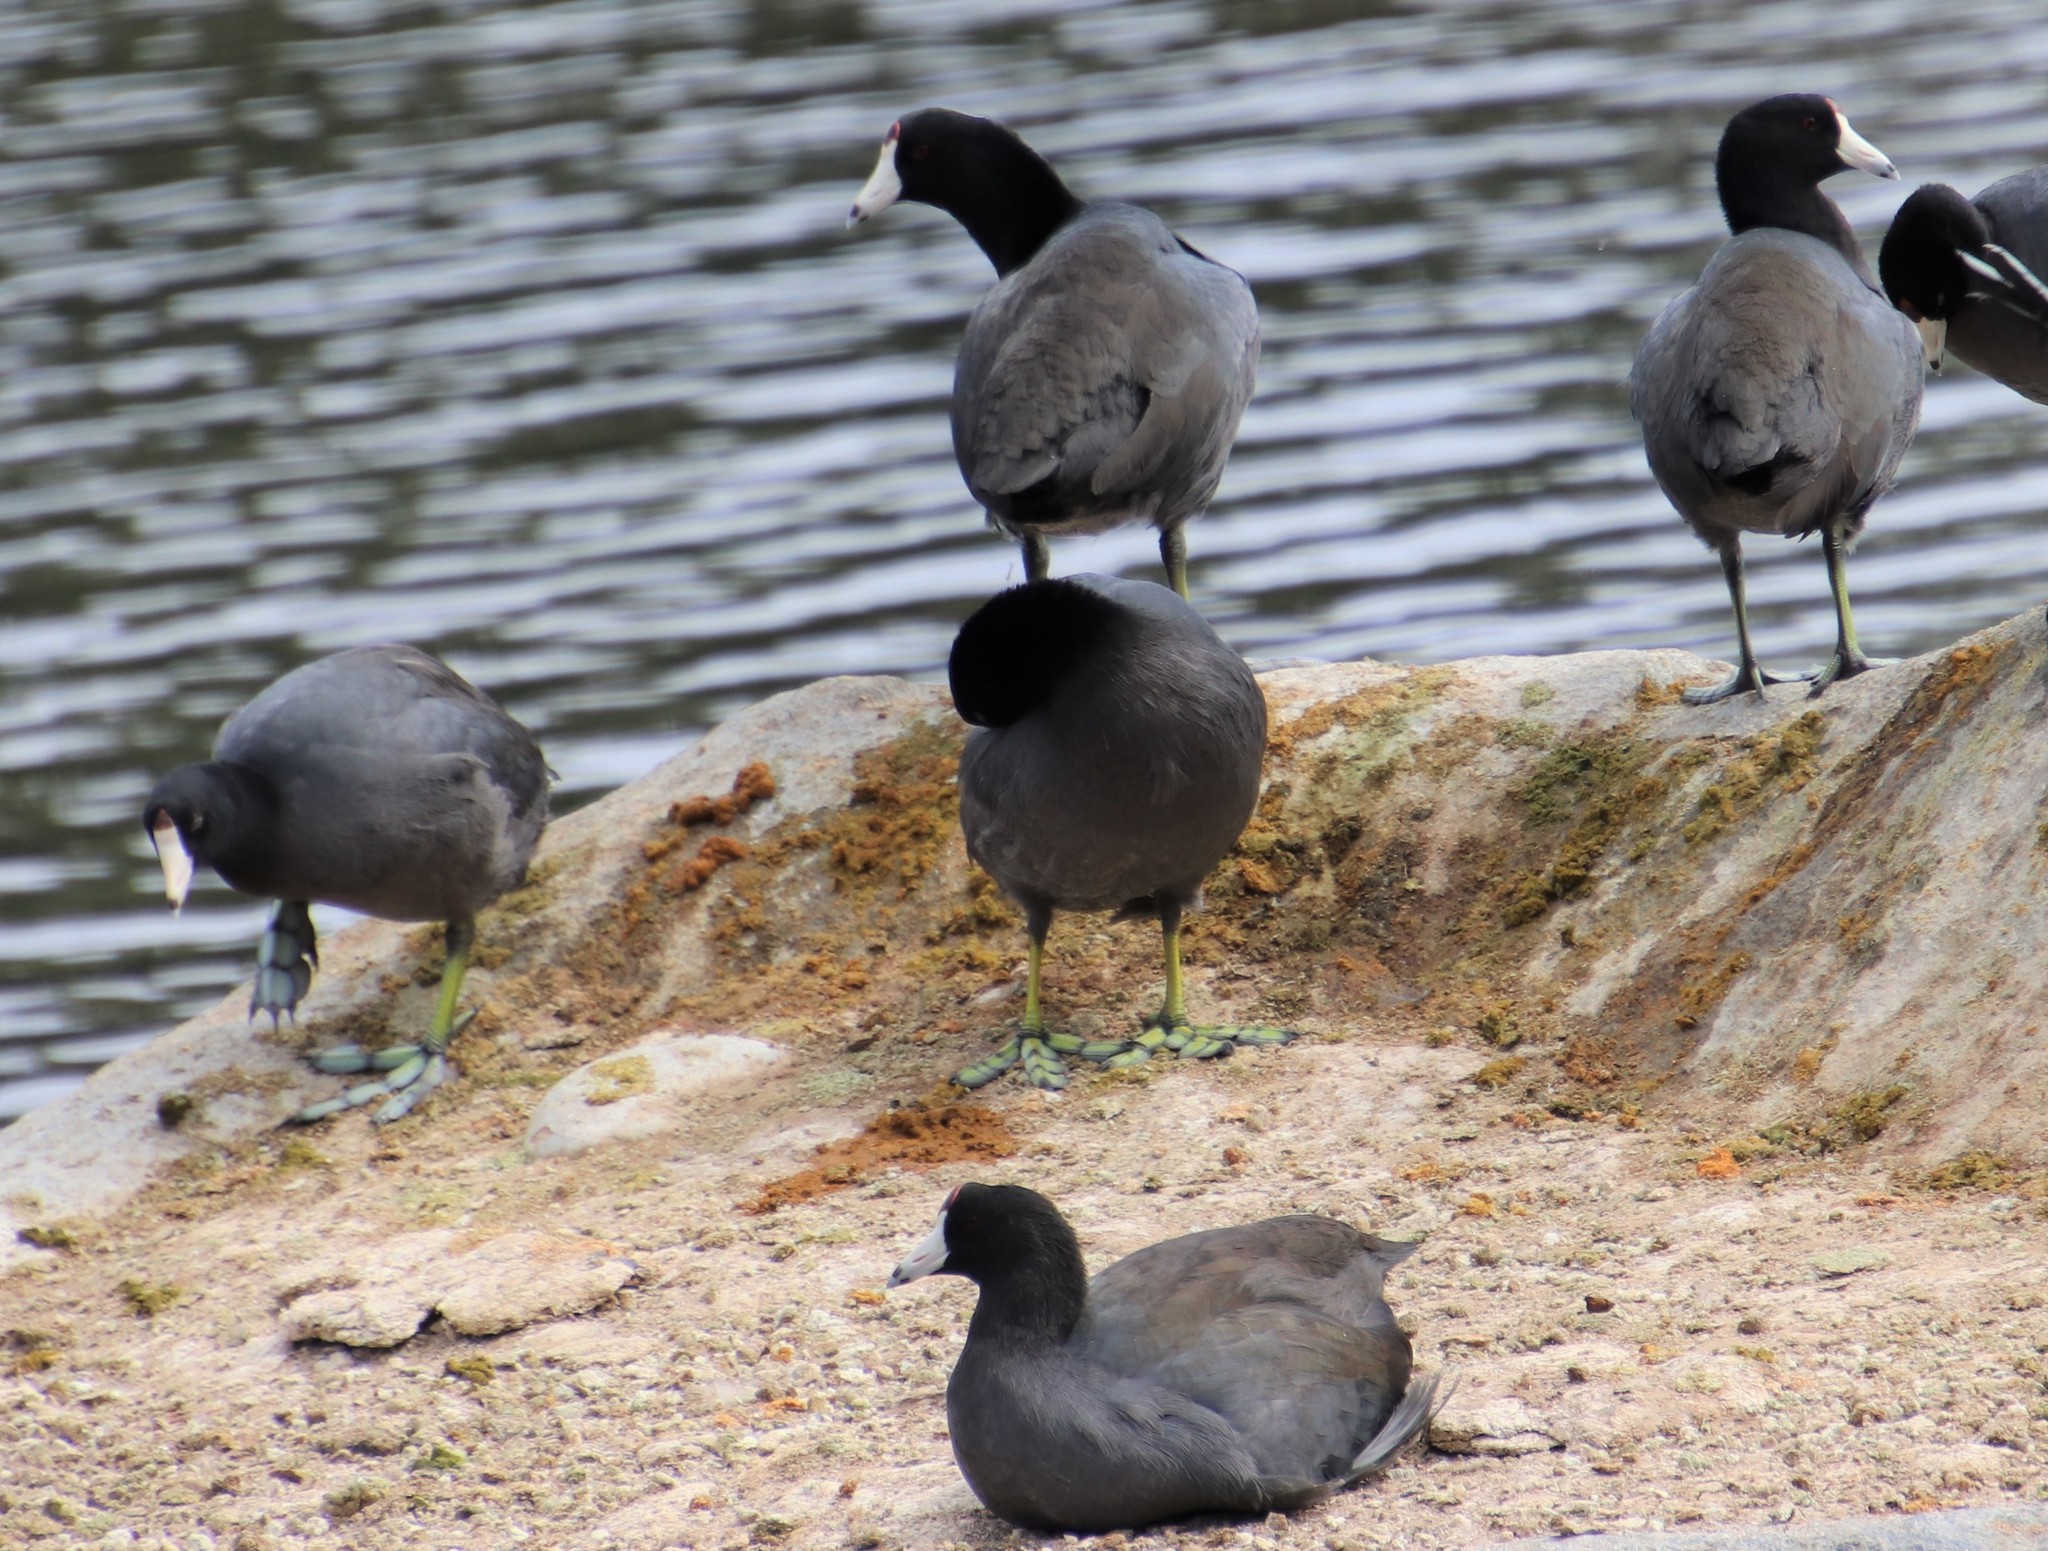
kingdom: Animalia
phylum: Chordata
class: Aves
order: Gruiformes
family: Rallidae
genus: Fulica
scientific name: Fulica americana
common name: American coot
